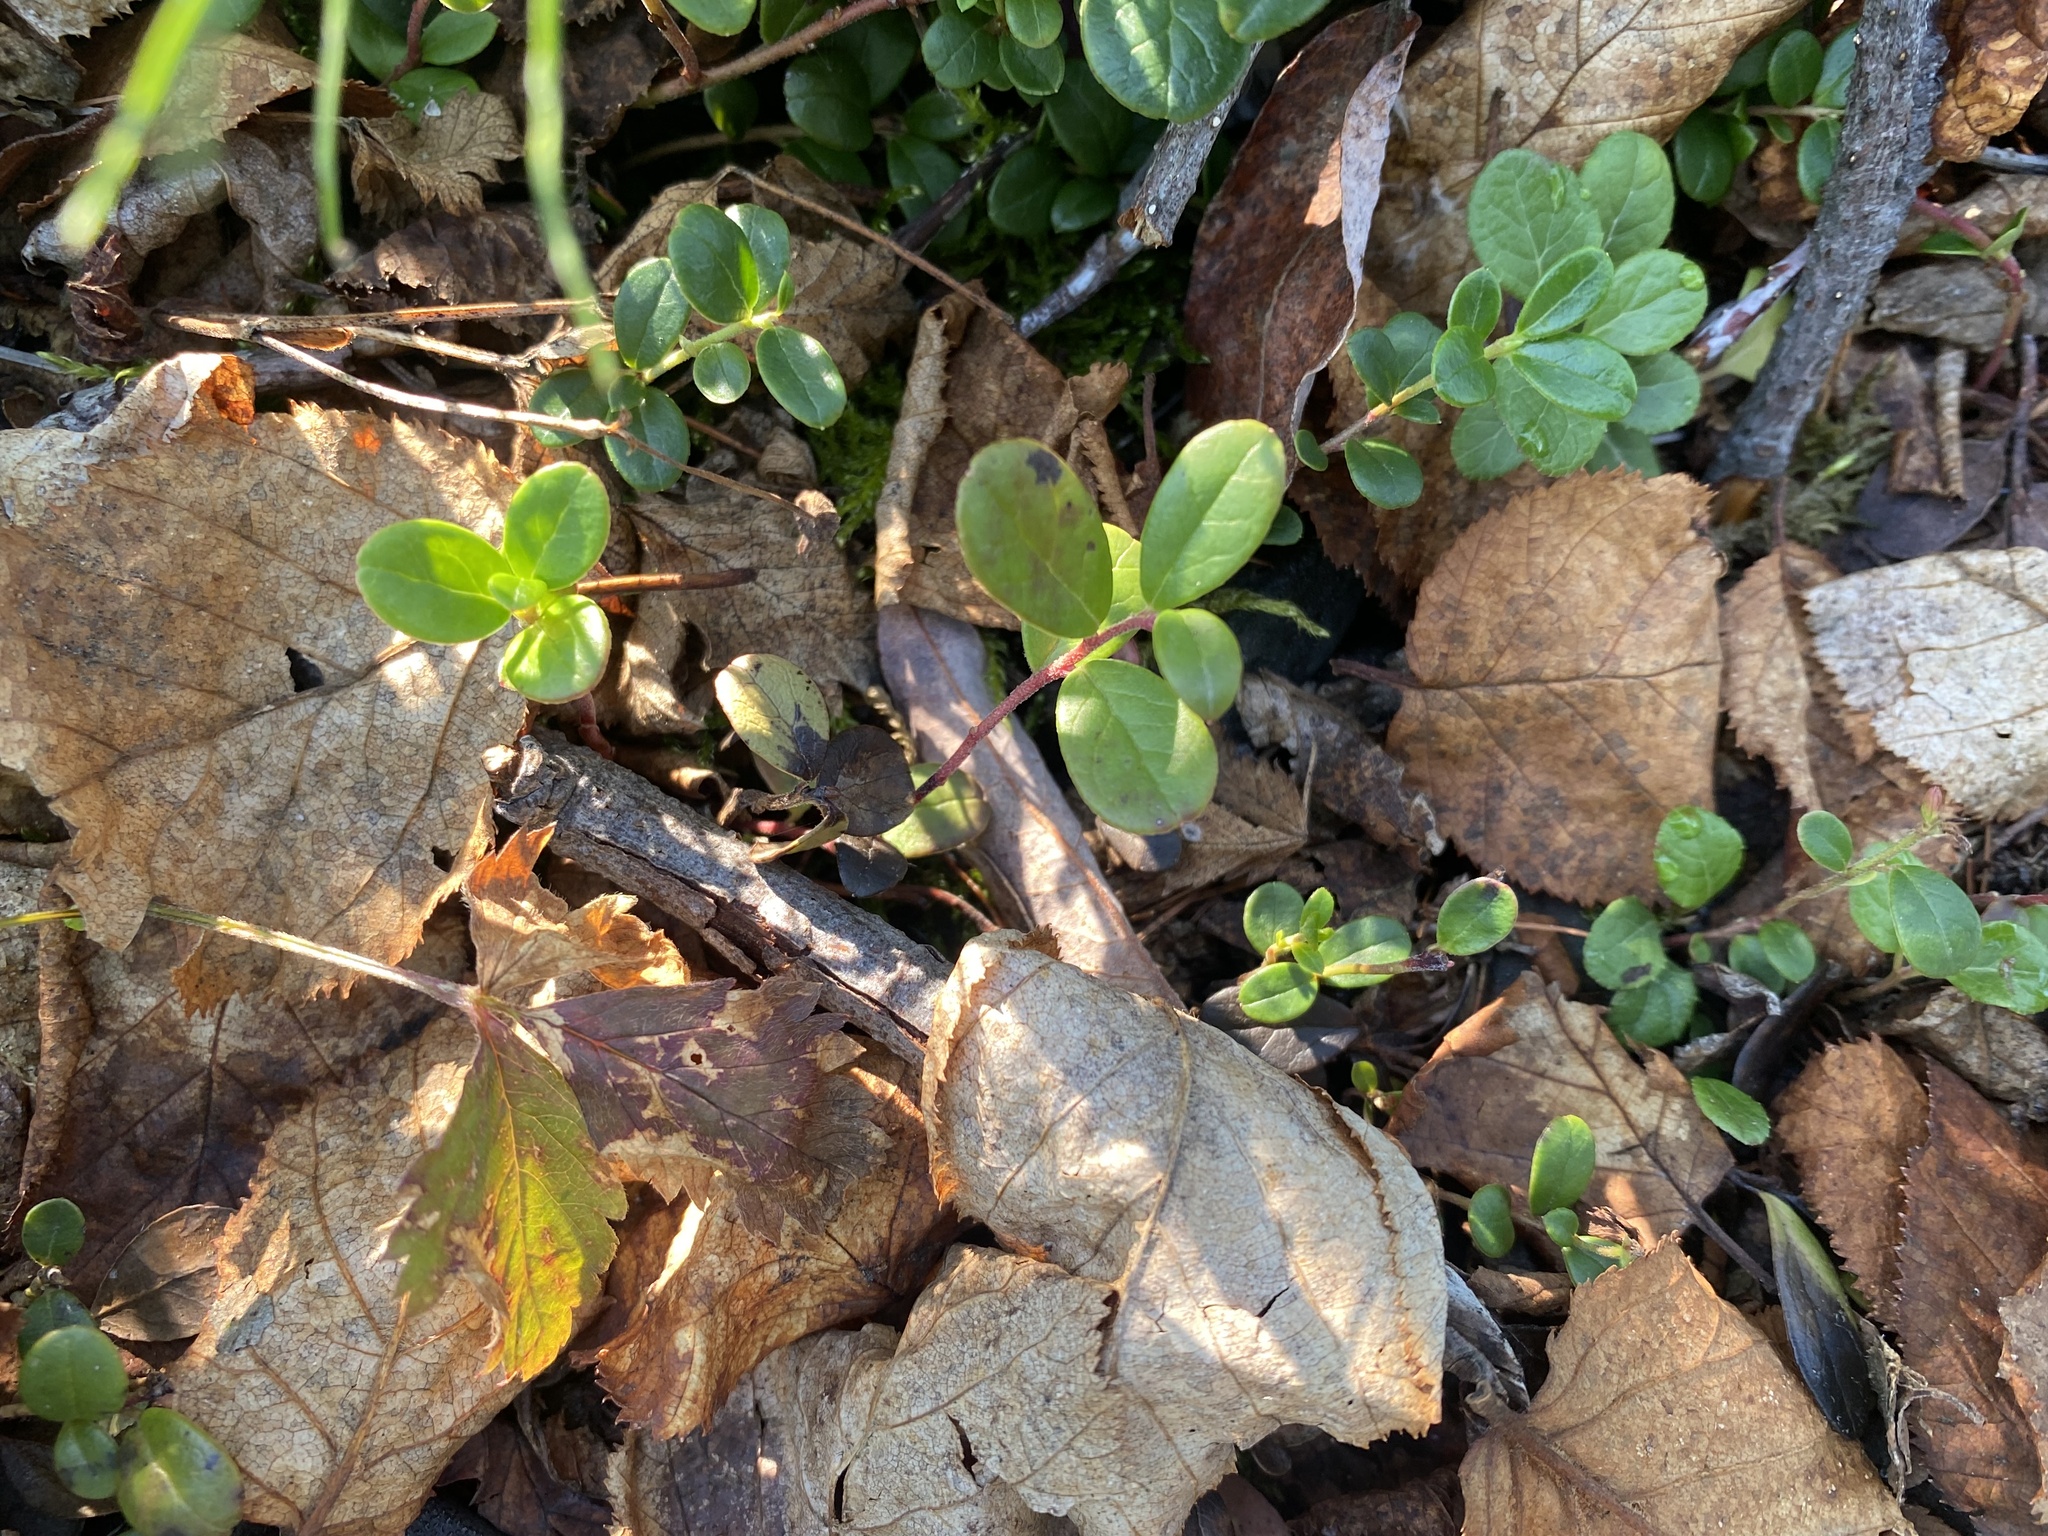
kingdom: Plantae
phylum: Tracheophyta
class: Magnoliopsida
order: Ericales
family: Ericaceae
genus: Vaccinium
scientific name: Vaccinium vitis-idaea
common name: Cowberry
